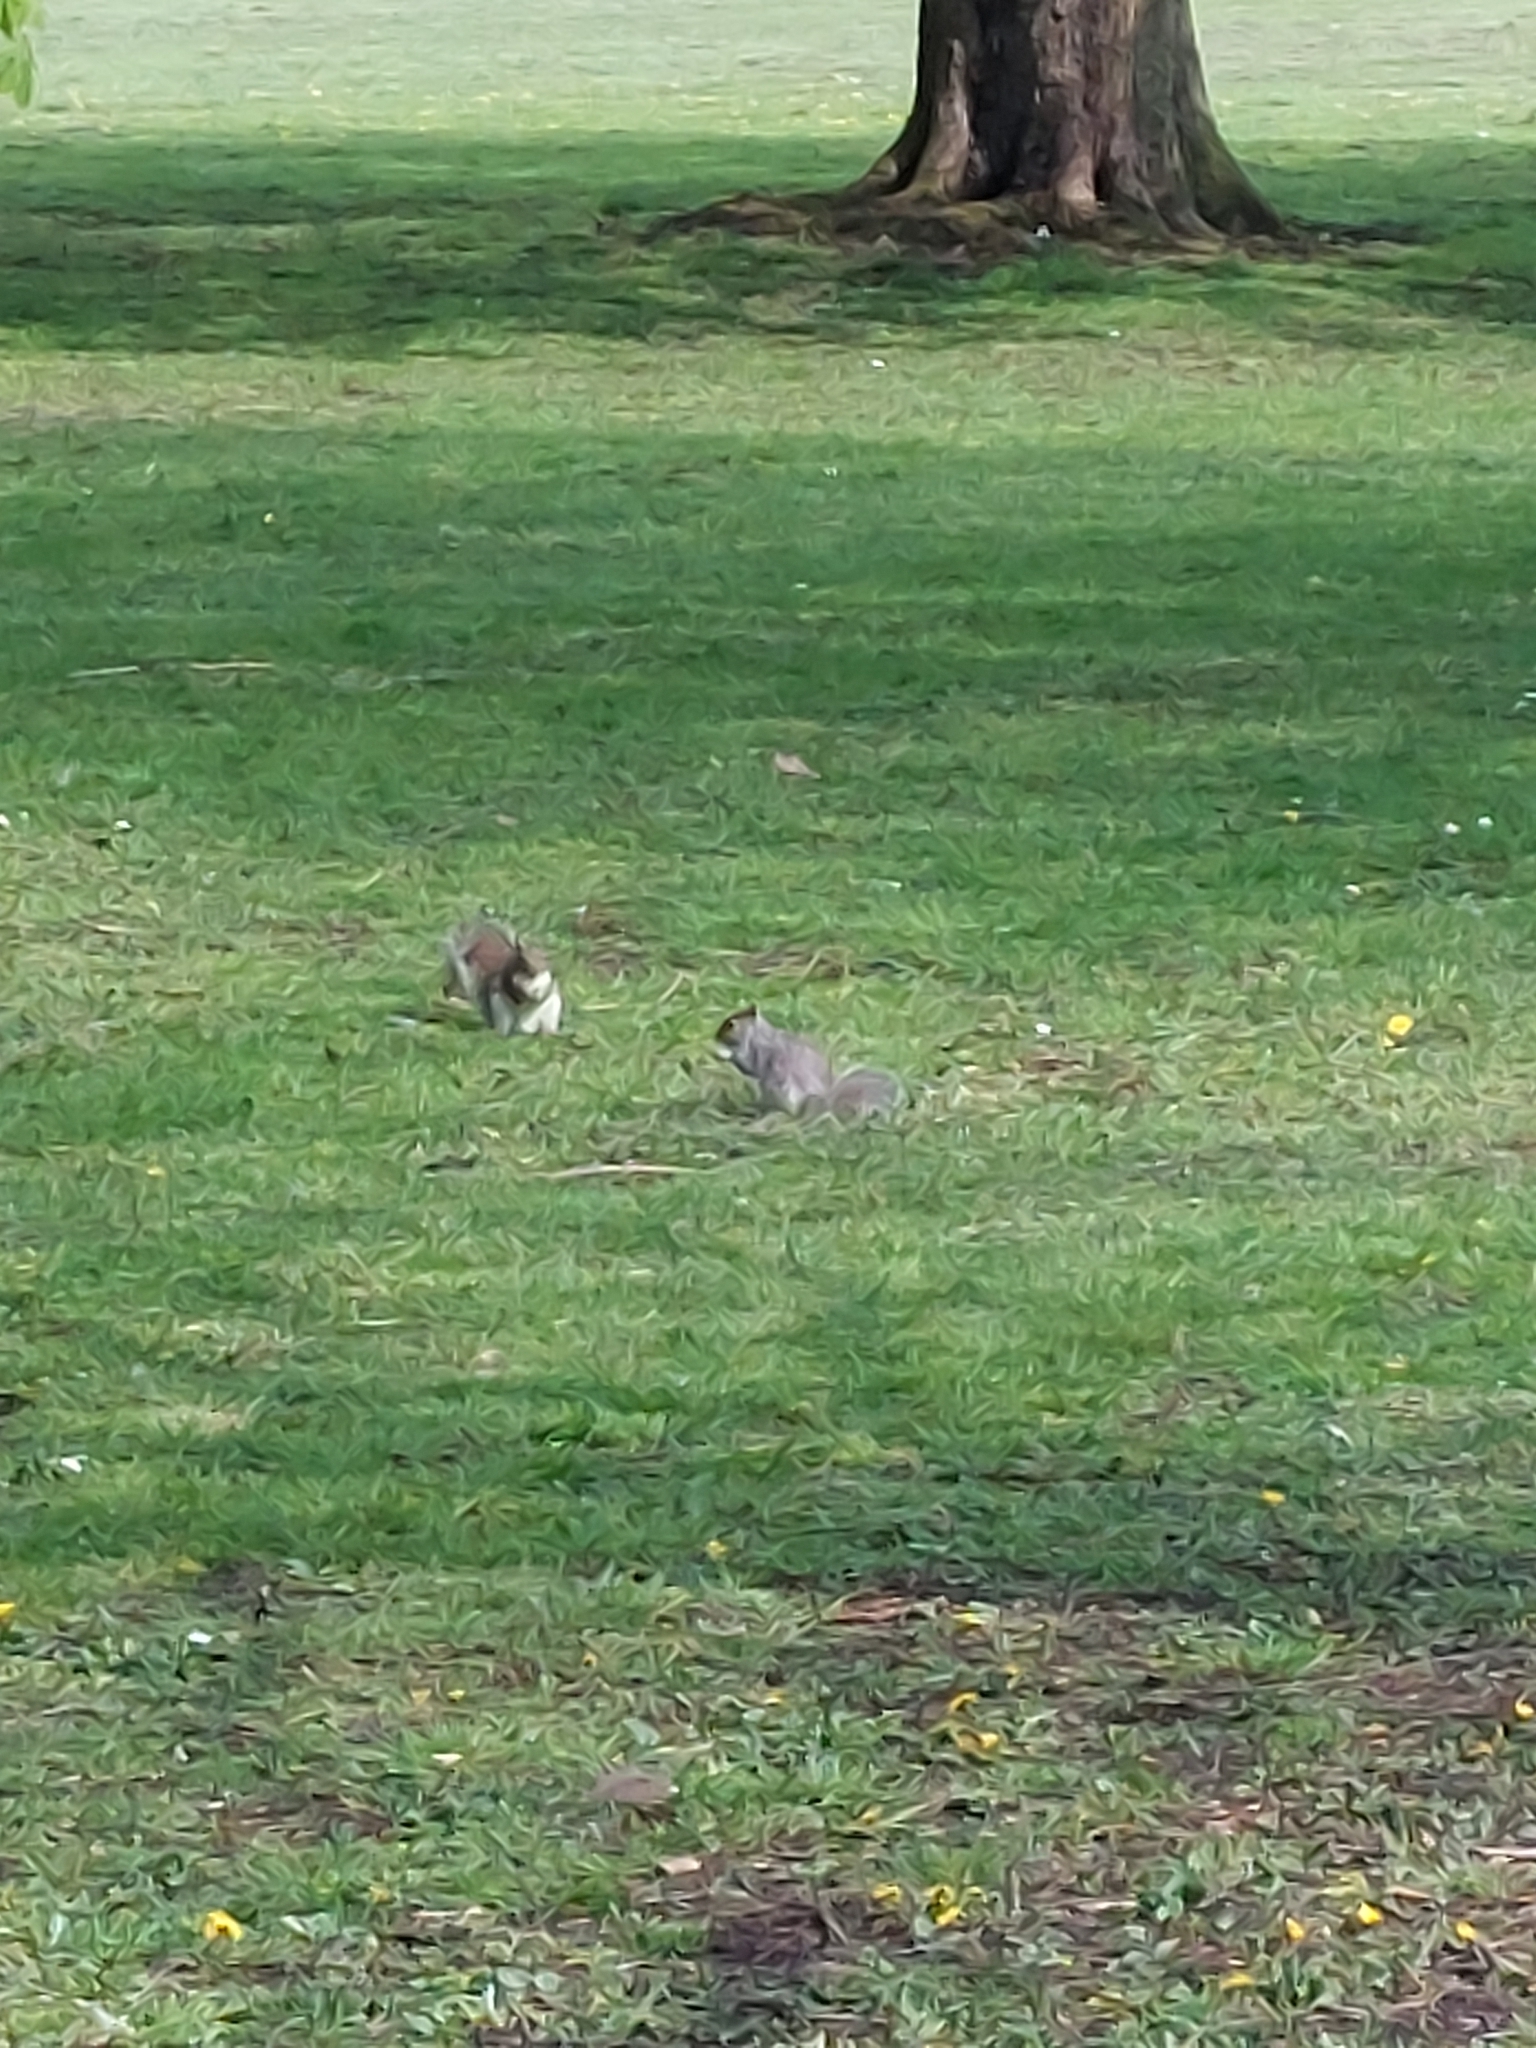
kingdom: Animalia
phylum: Chordata
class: Mammalia
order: Rodentia
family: Sciuridae
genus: Sciurus
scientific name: Sciurus carolinensis
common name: Eastern gray squirrel
